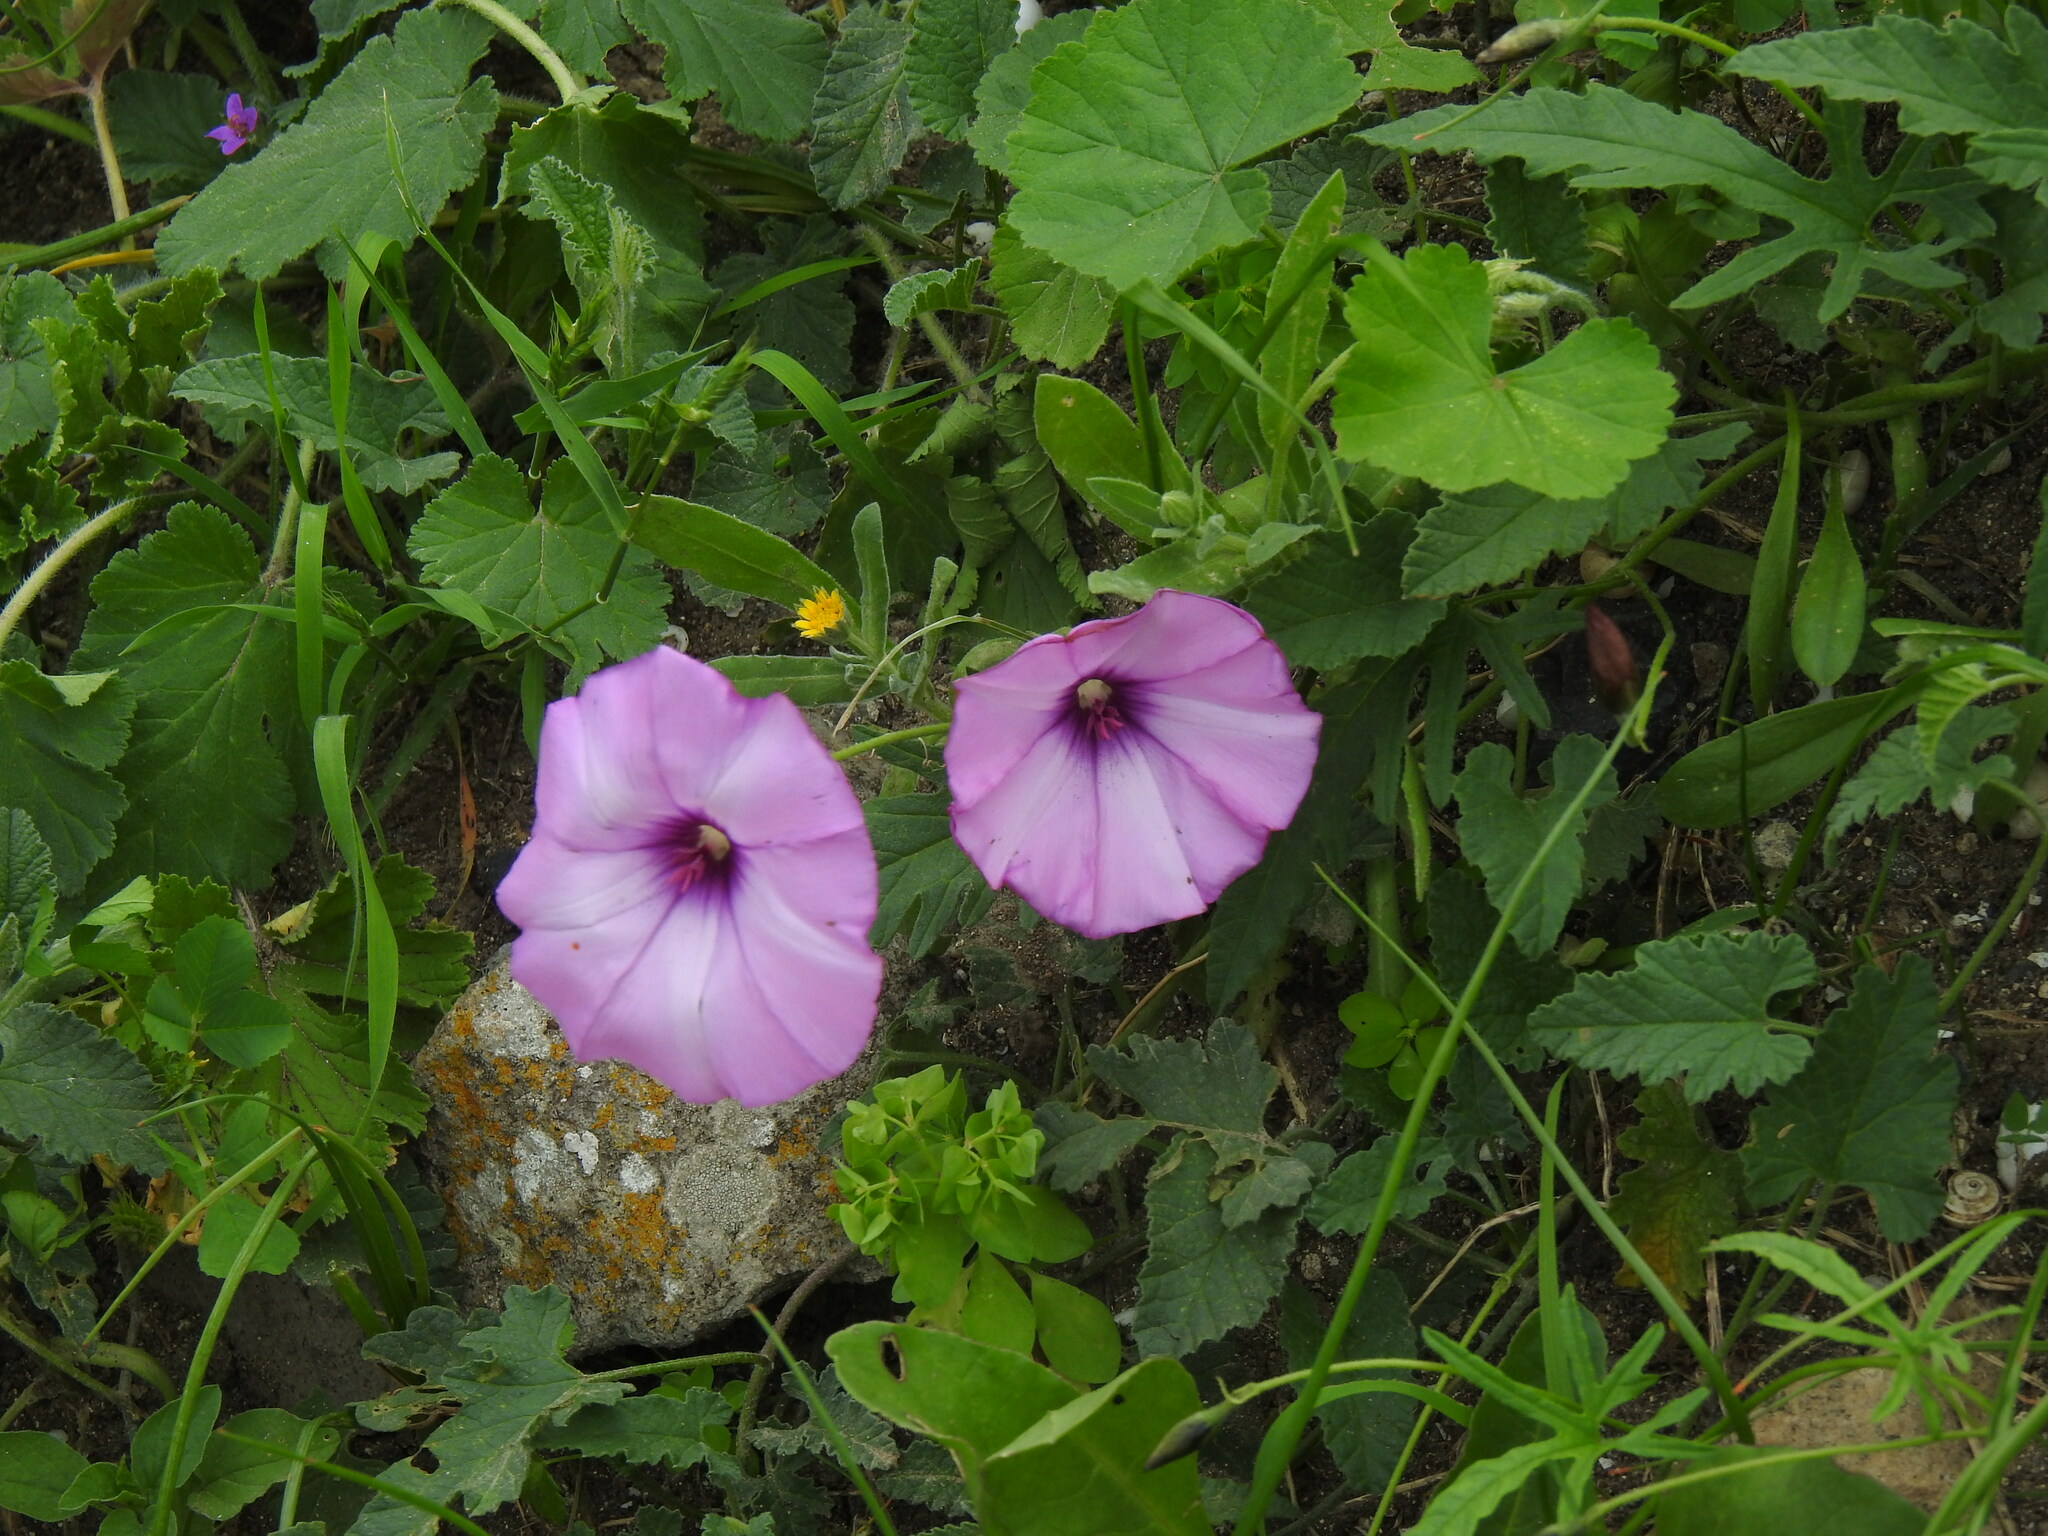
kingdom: Plantae
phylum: Tracheophyta
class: Magnoliopsida
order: Solanales
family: Convolvulaceae
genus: Convolvulus
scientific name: Convolvulus althaeoides
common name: Mallow bindweed
